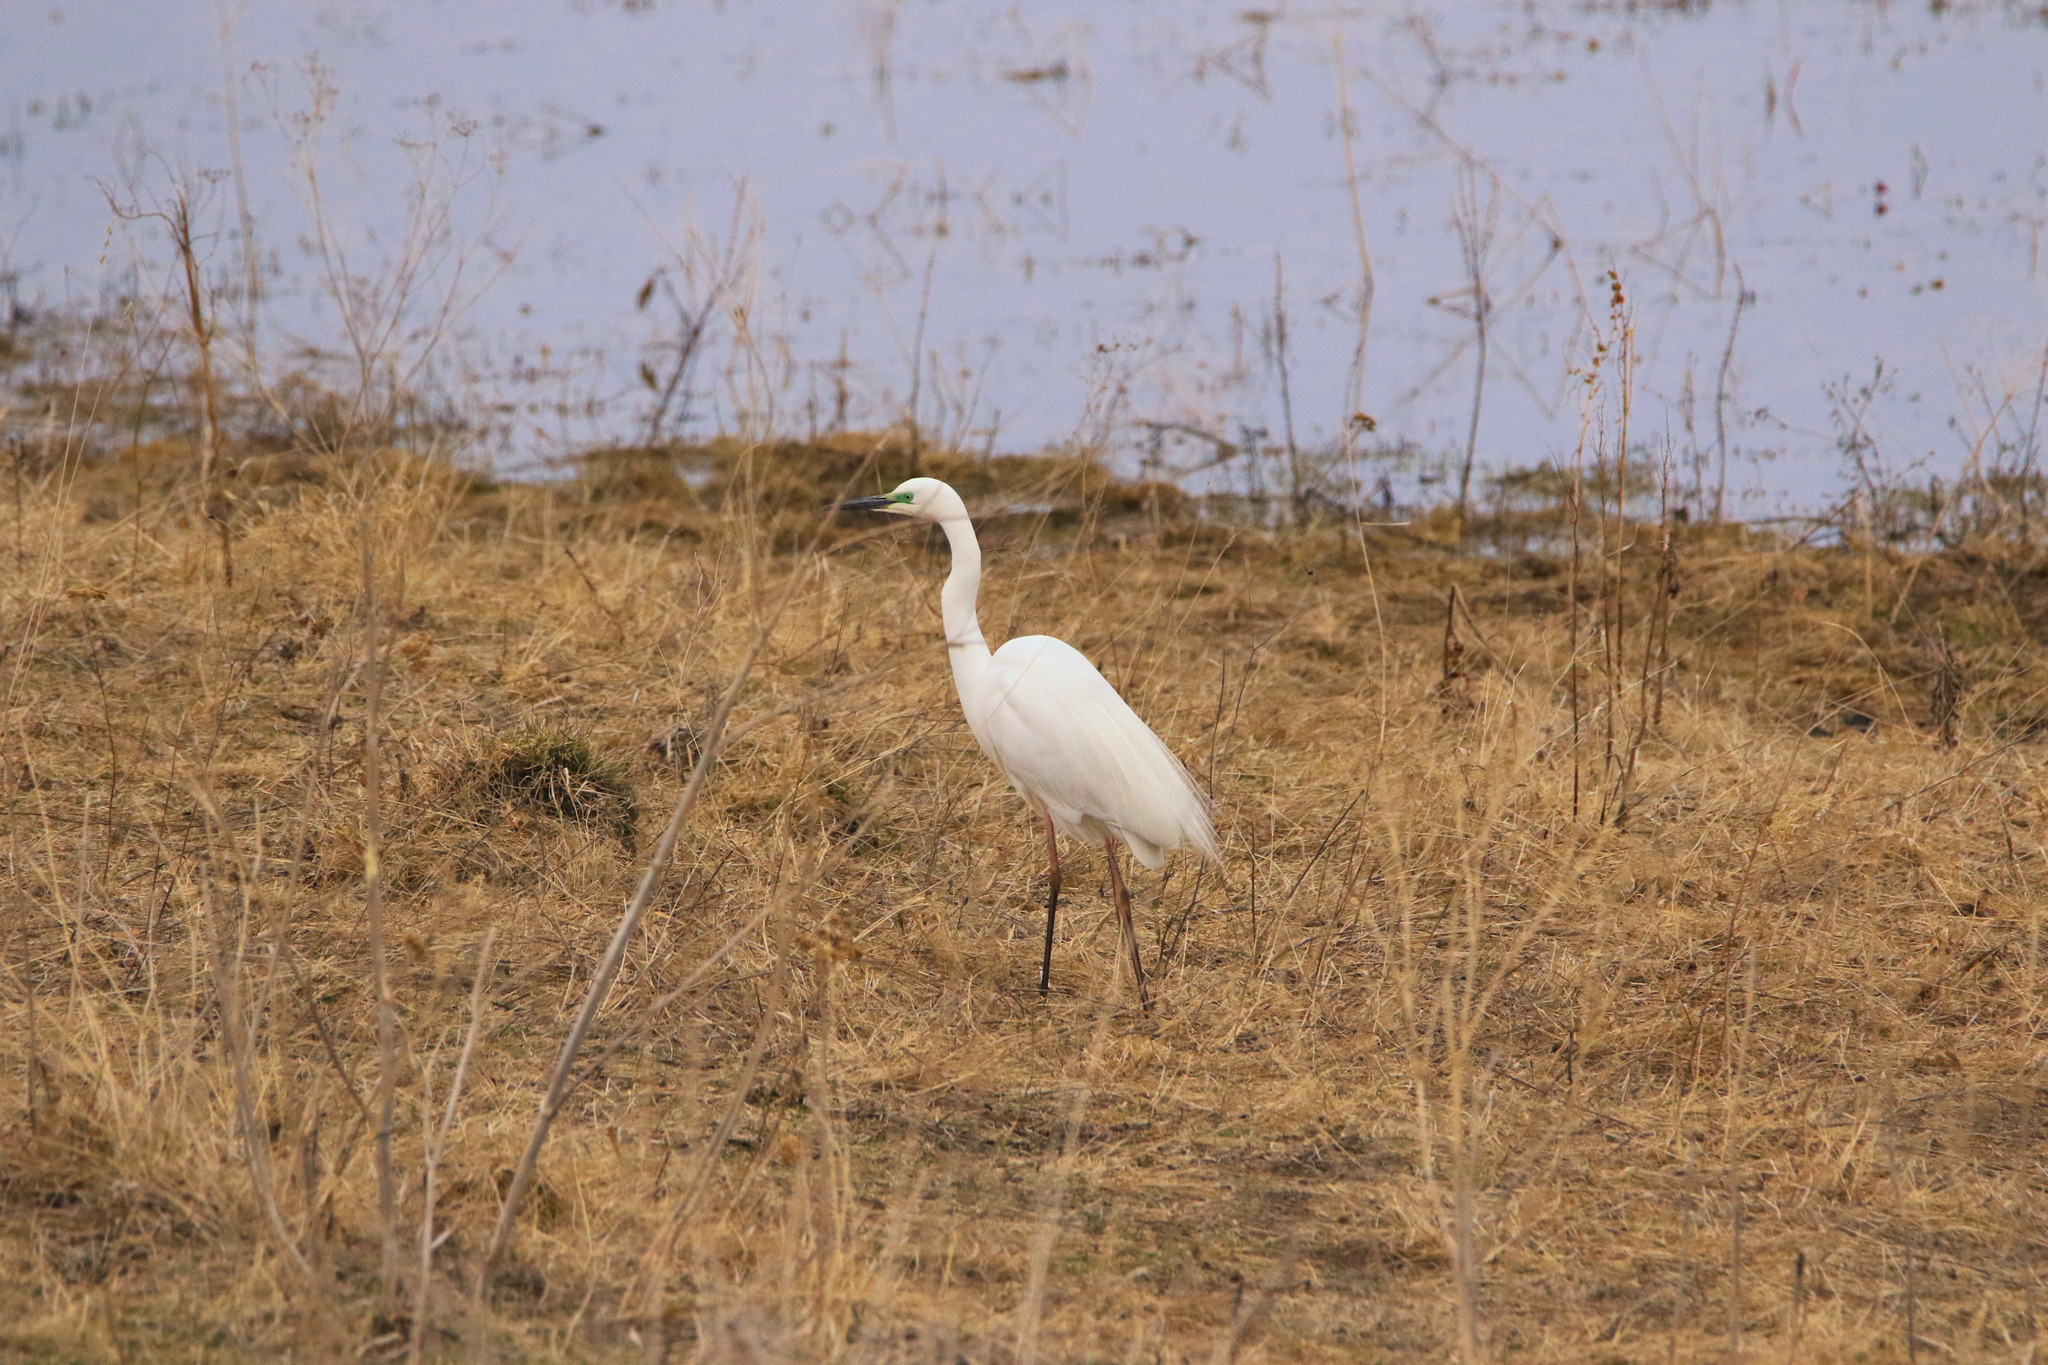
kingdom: Animalia
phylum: Chordata
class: Aves
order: Pelecaniformes
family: Ardeidae
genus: Ardea
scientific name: Ardea alba
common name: Great egret
